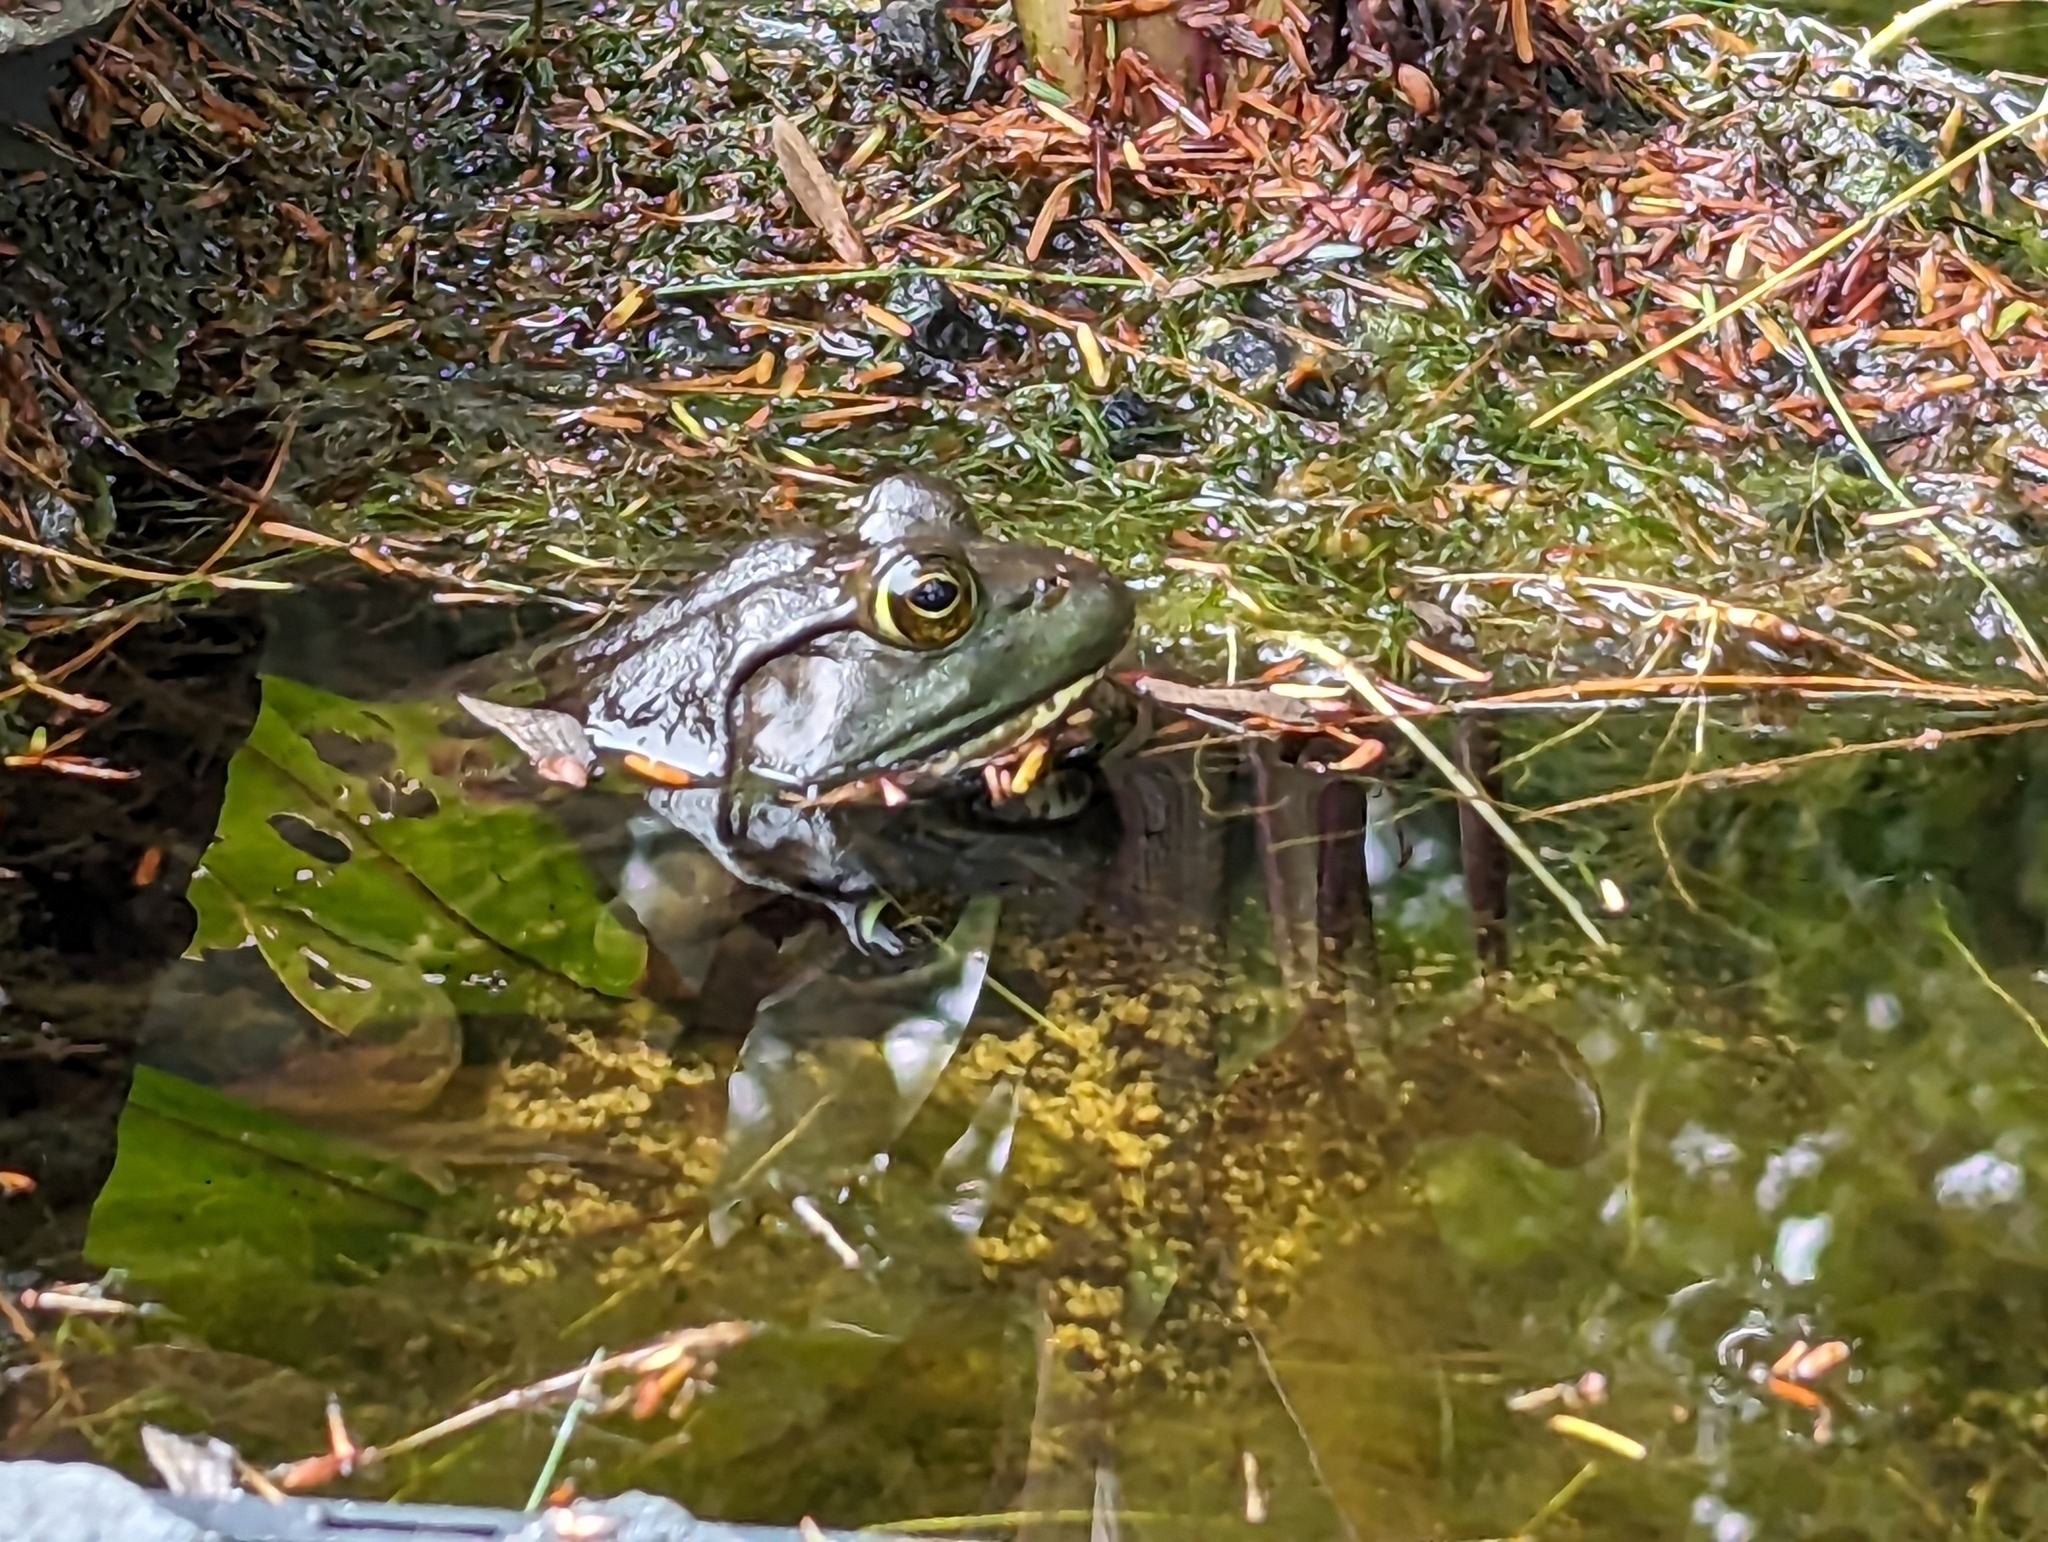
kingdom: Animalia
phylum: Chordata
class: Amphibia
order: Anura
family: Ranidae
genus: Lithobates
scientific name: Lithobates catesbeianus
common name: American bullfrog
